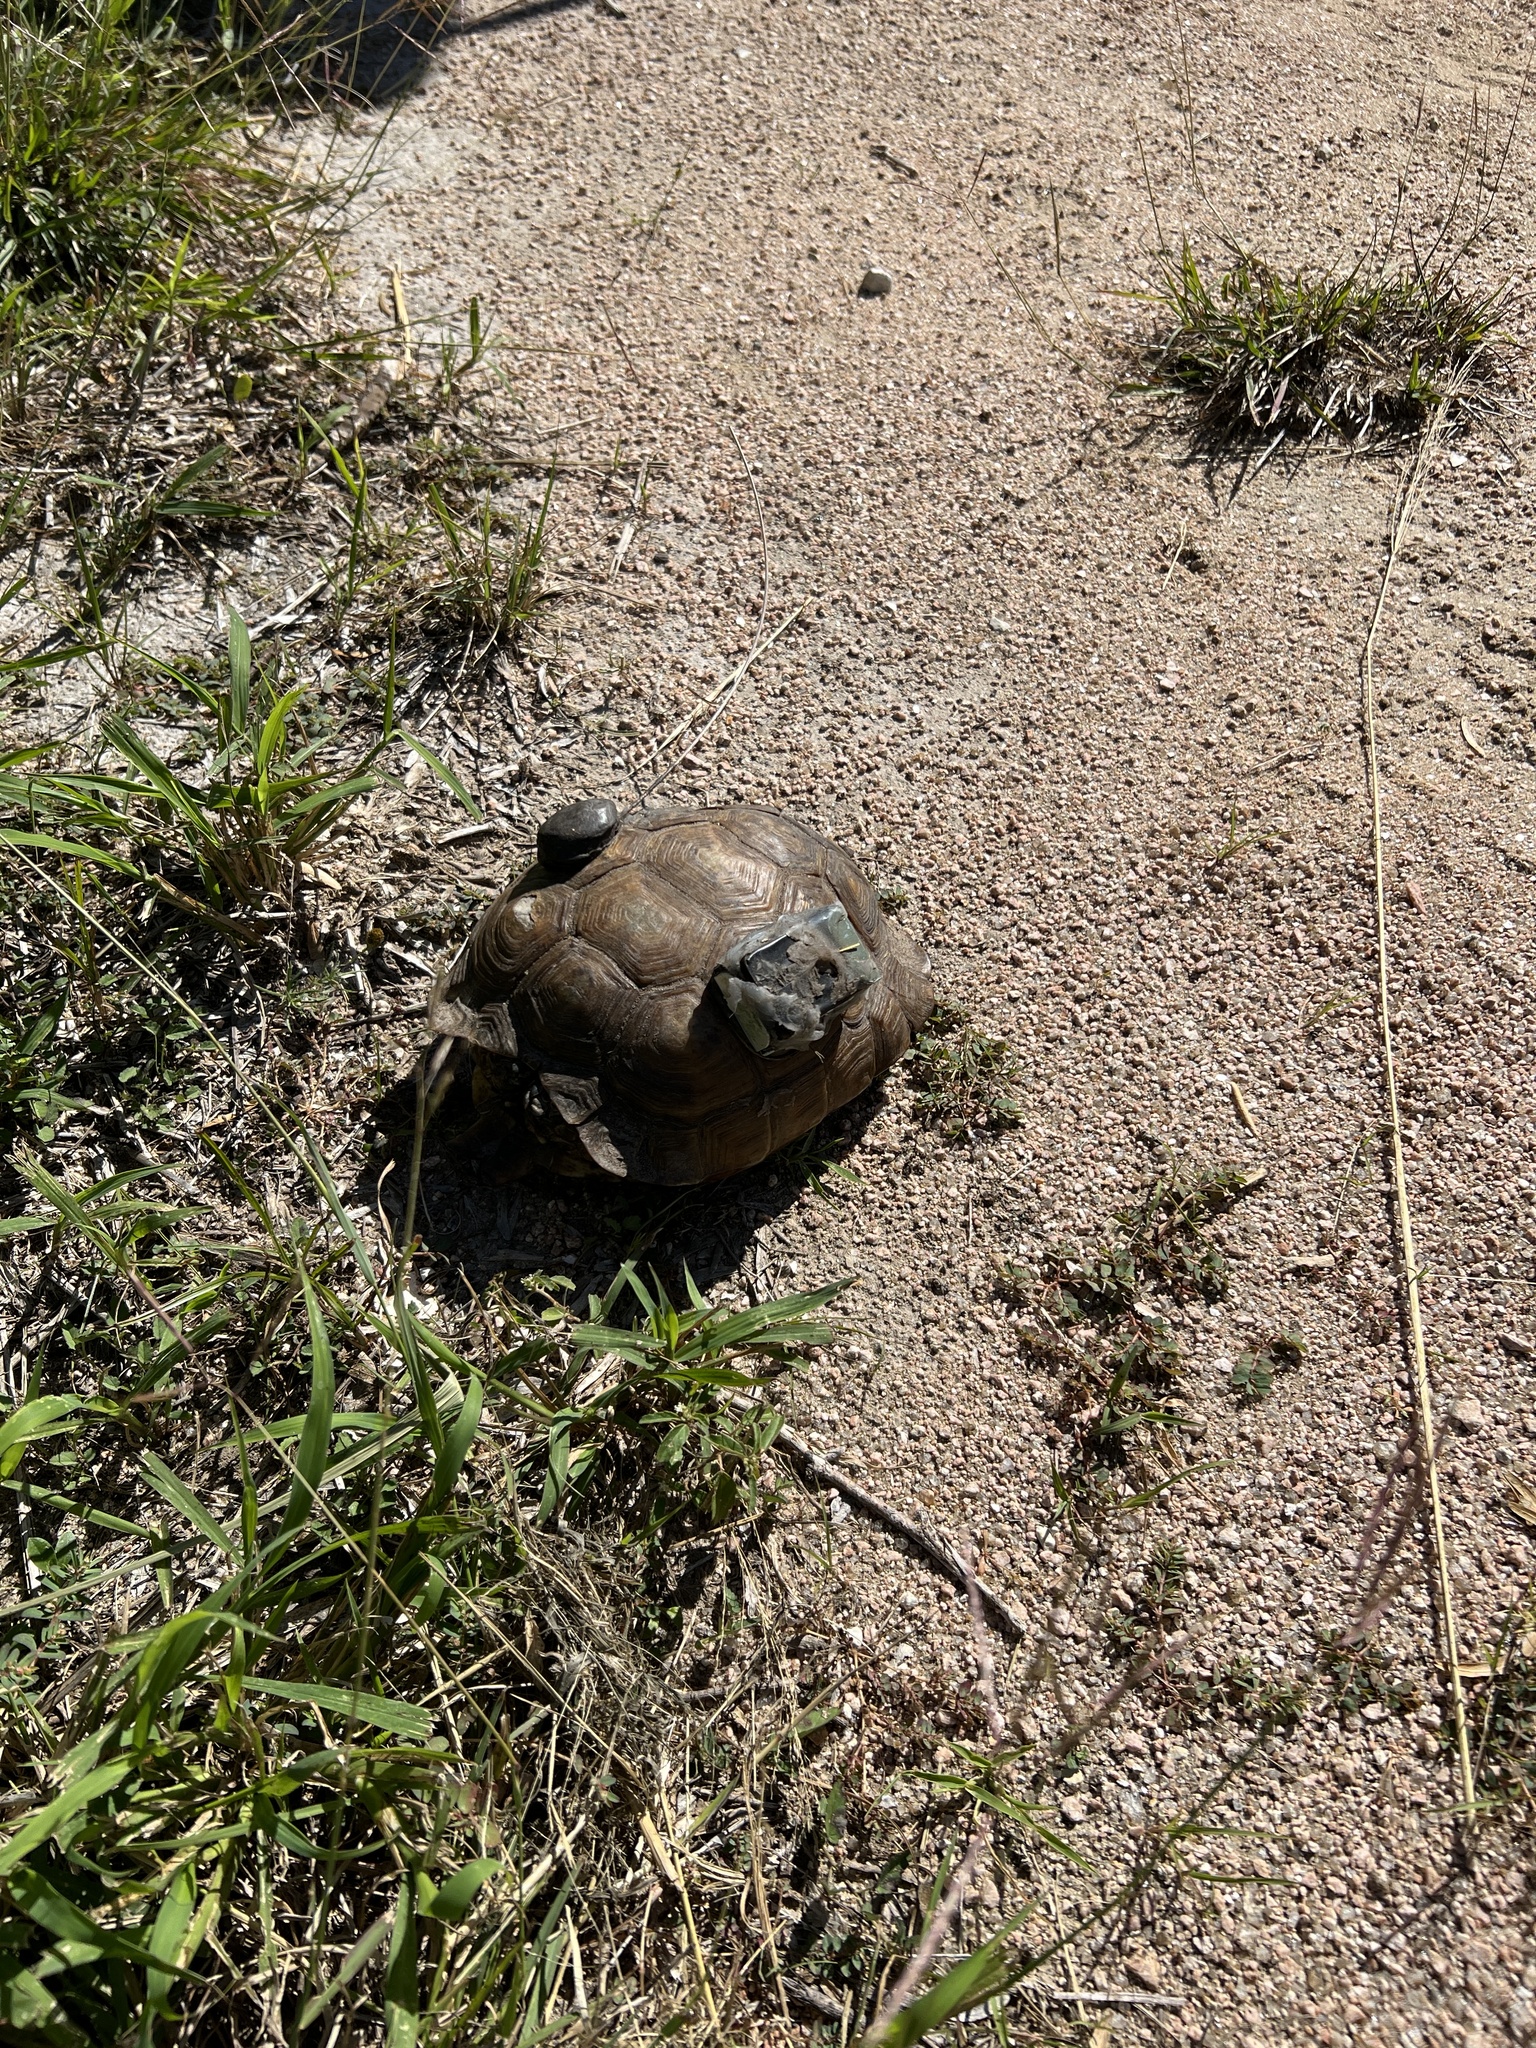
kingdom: Animalia
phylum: Chordata
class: Testudines
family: Testudinidae
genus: Gopherus
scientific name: Gopherus berlandieri
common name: Texas (gopher )tortoise
